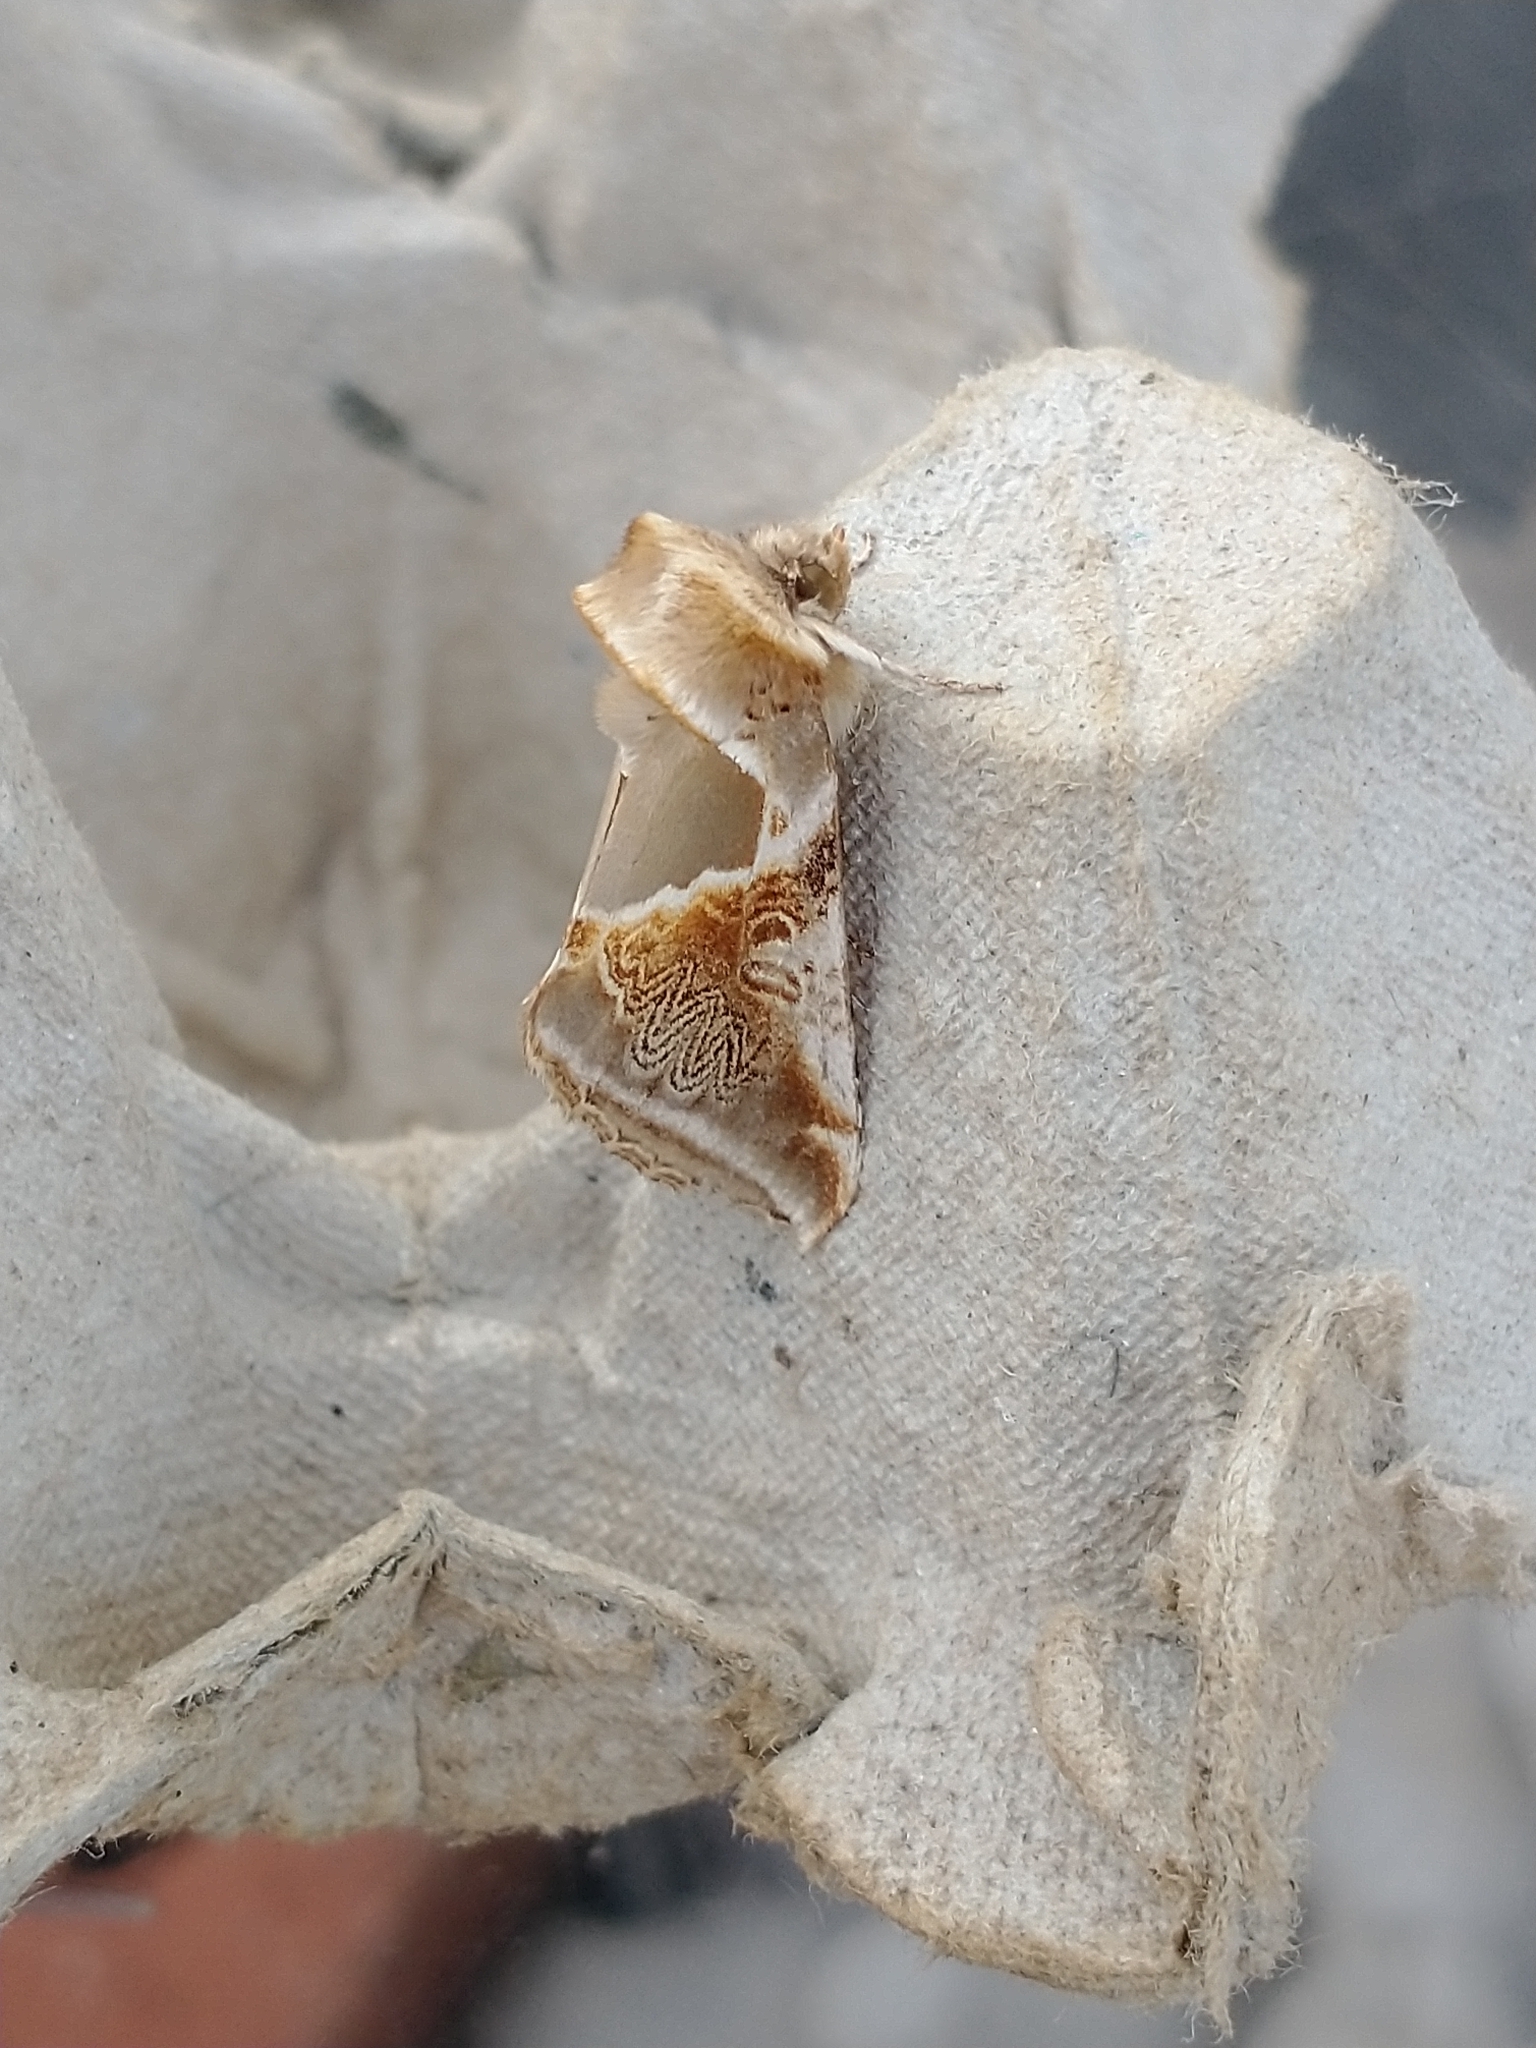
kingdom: Animalia
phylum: Arthropoda
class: Insecta
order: Lepidoptera
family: Drepanidae
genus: Habrosyne
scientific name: Habrosyne pyritoides
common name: Buff arches
